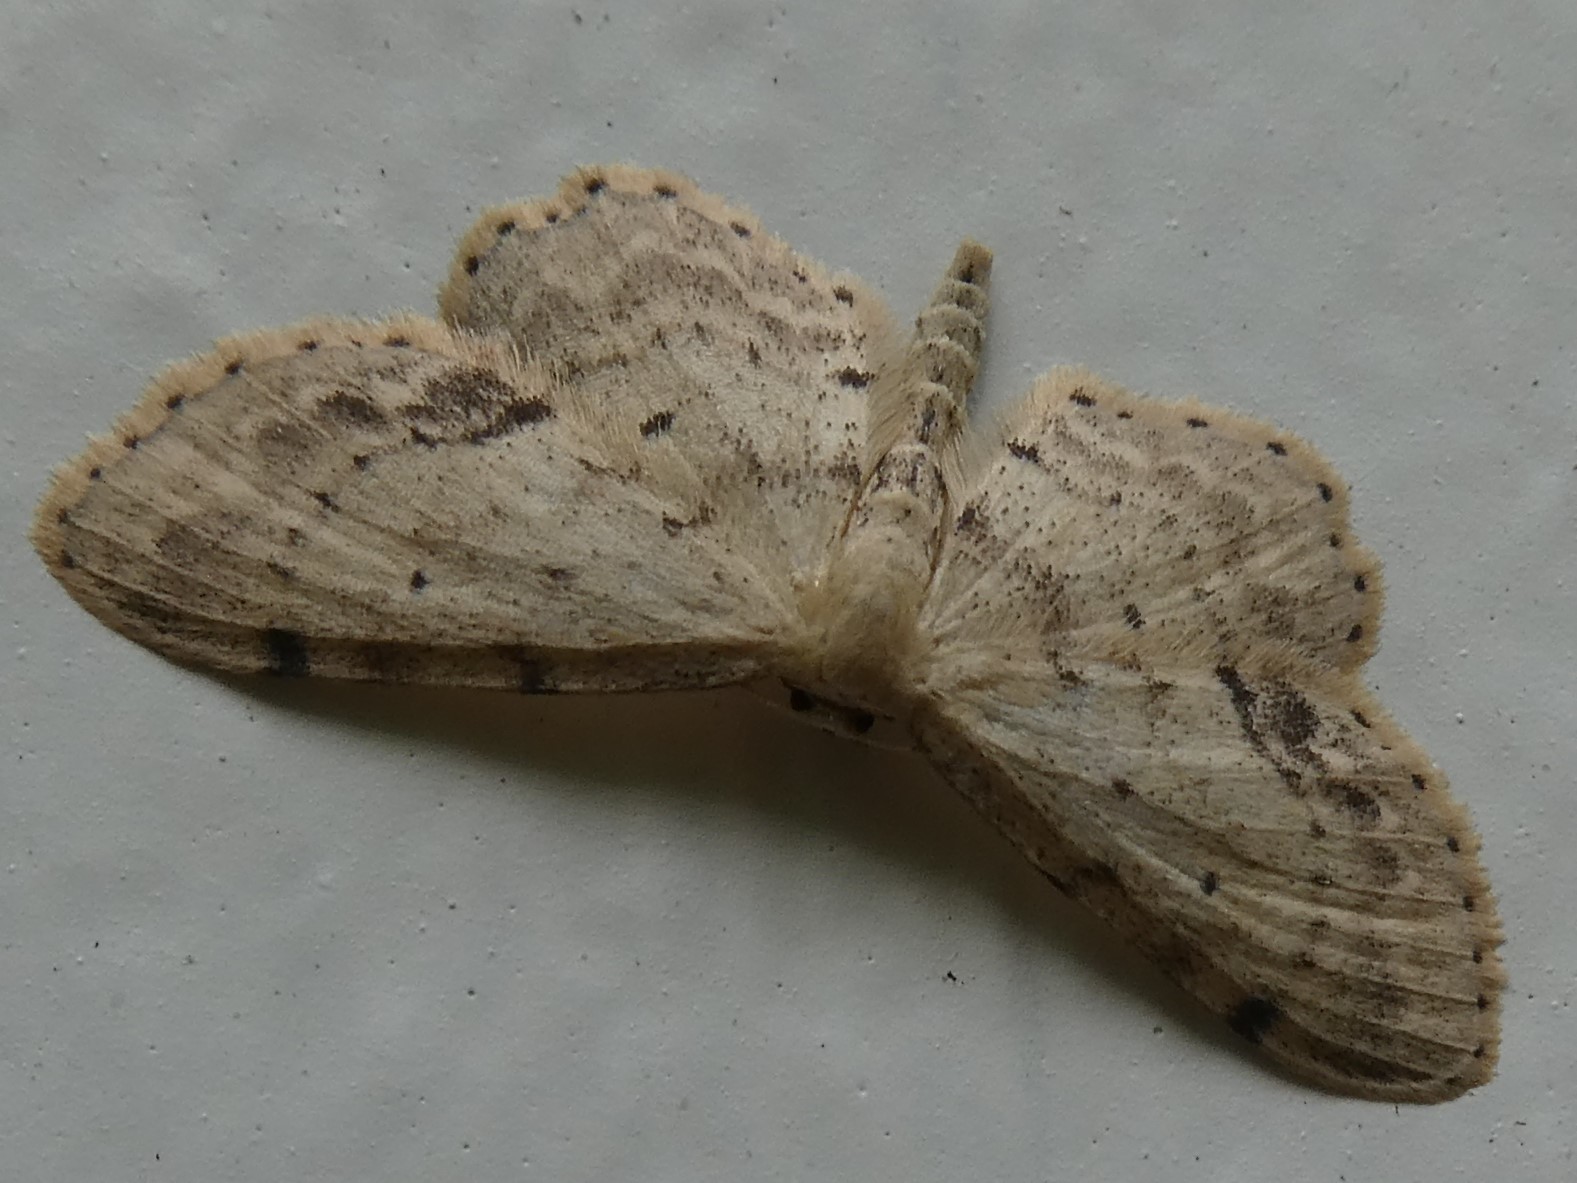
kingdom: Animalia
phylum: Arthropoda
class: Insecta
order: Lepidoptera
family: Geometridae
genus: Idaea
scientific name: Idaea dimidiata
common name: Single-dotted wave
